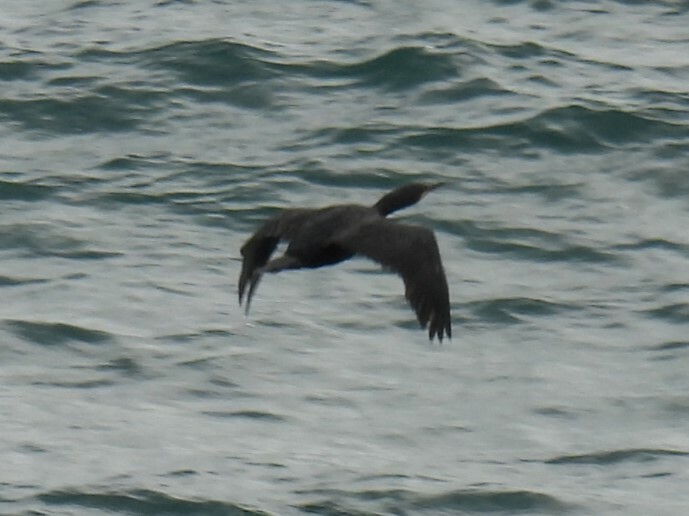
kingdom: Animalia
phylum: Chordata
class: Aves
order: Suliformes
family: Phalacrocoracidae
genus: Phalacrocorax
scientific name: Phalacrocorax carbo
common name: Great cormorant
